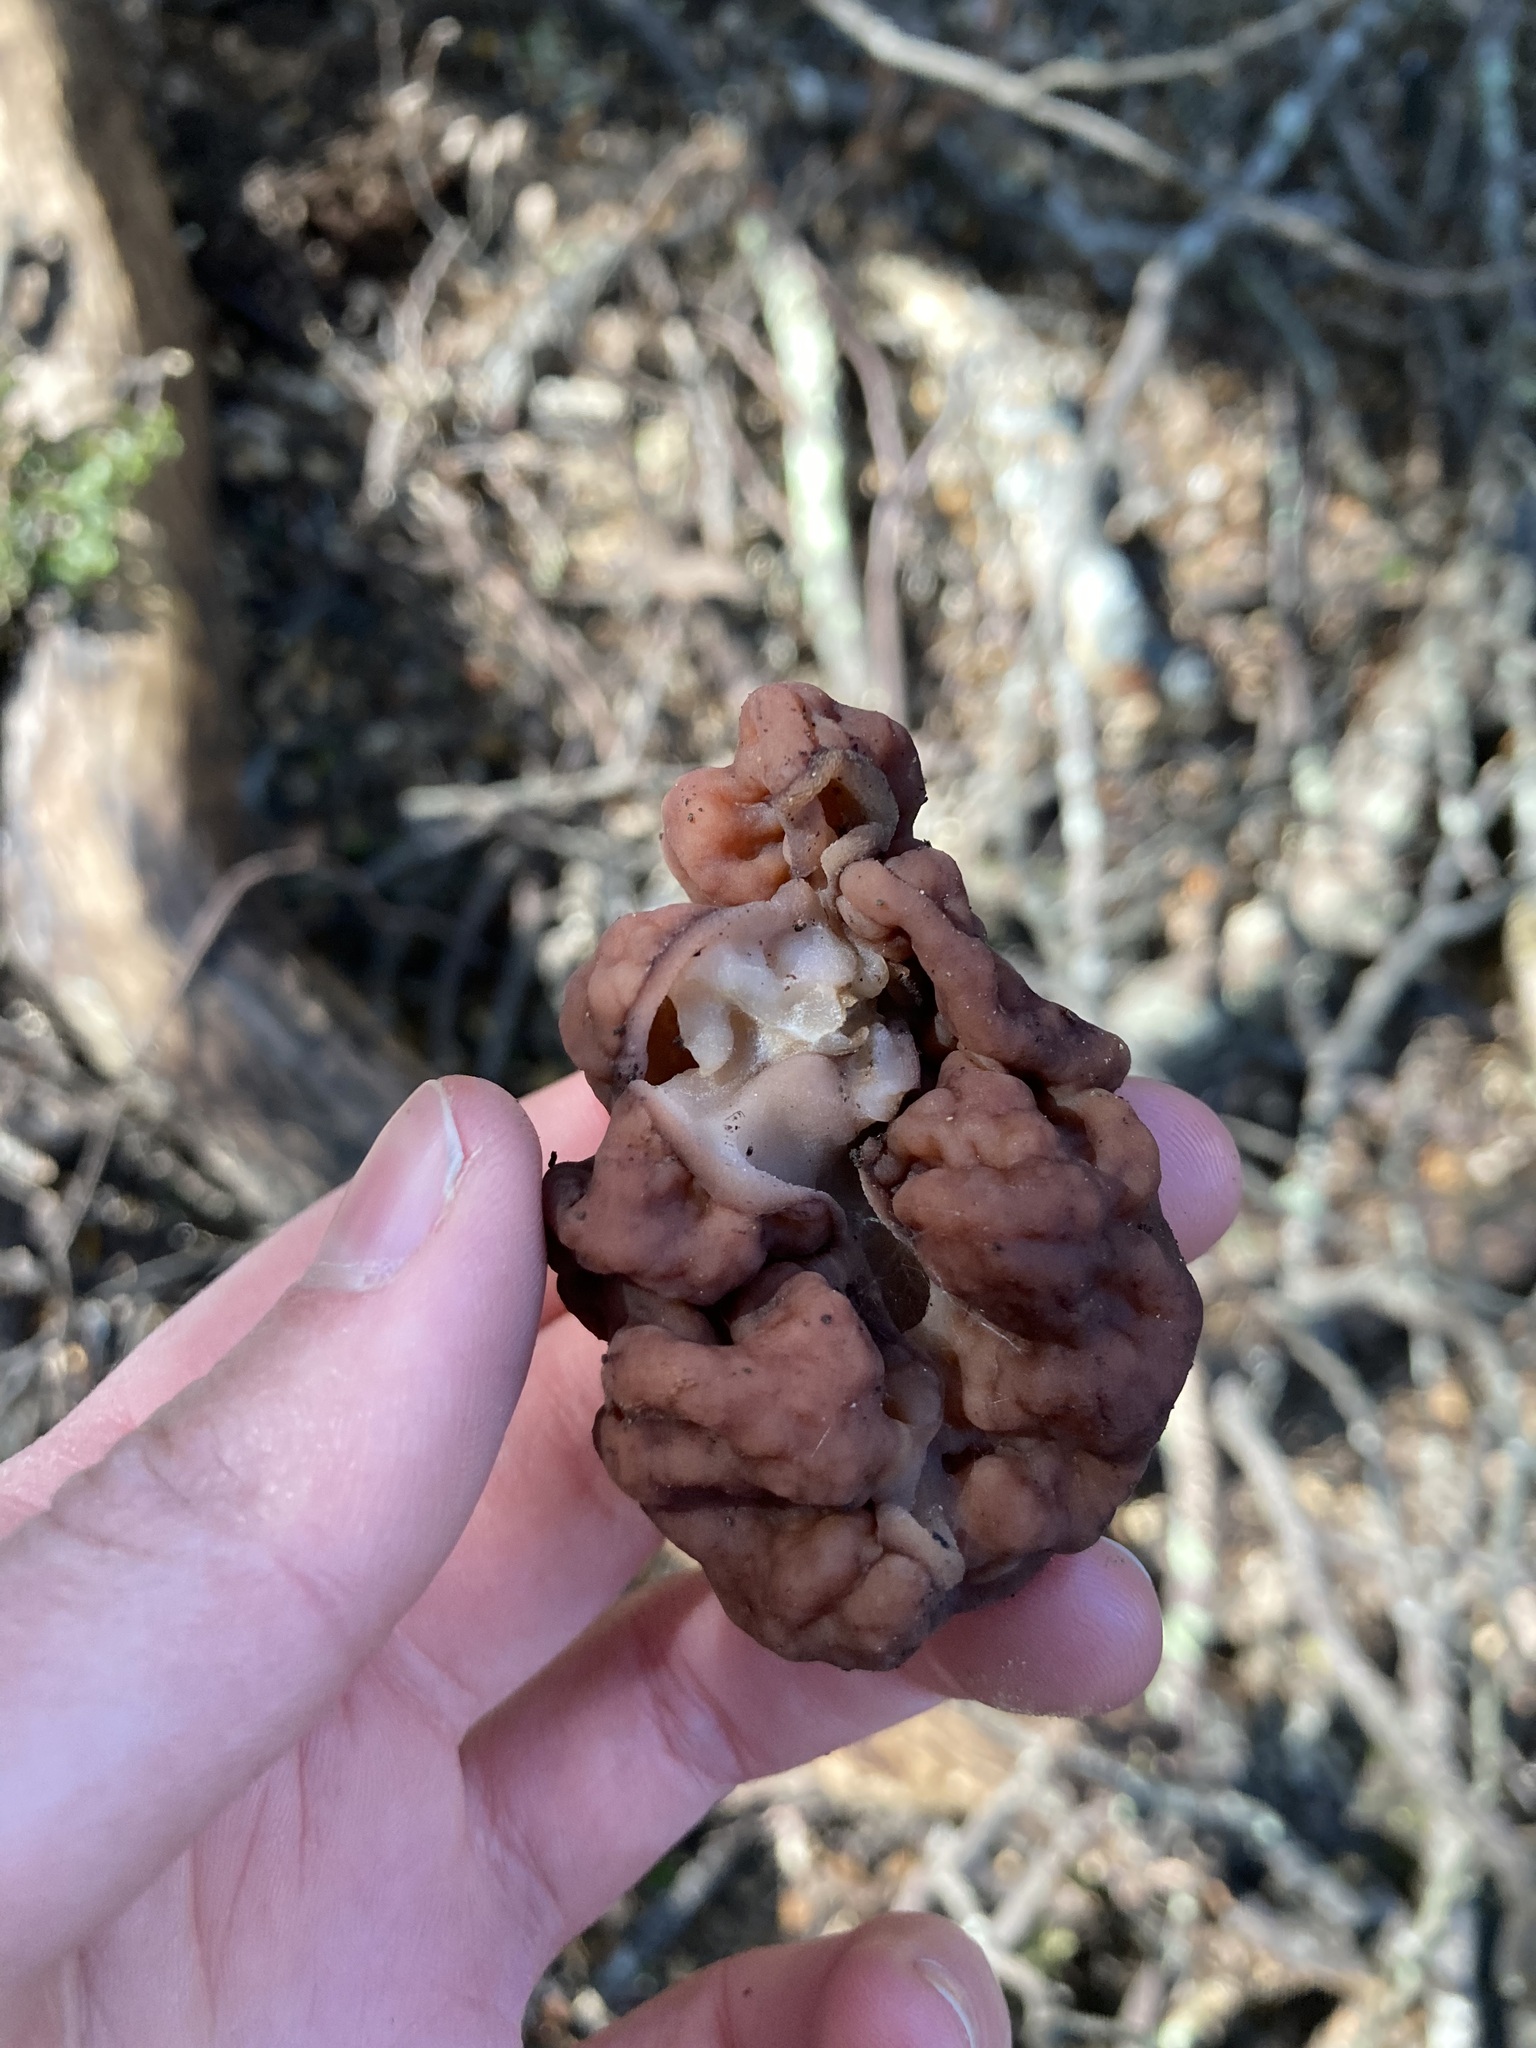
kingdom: Fungi
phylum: Ascomycota
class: Pezizomycetes
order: Pezizales
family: Discinaceae
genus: Gyromitra
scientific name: Gyromitra tasmanica
